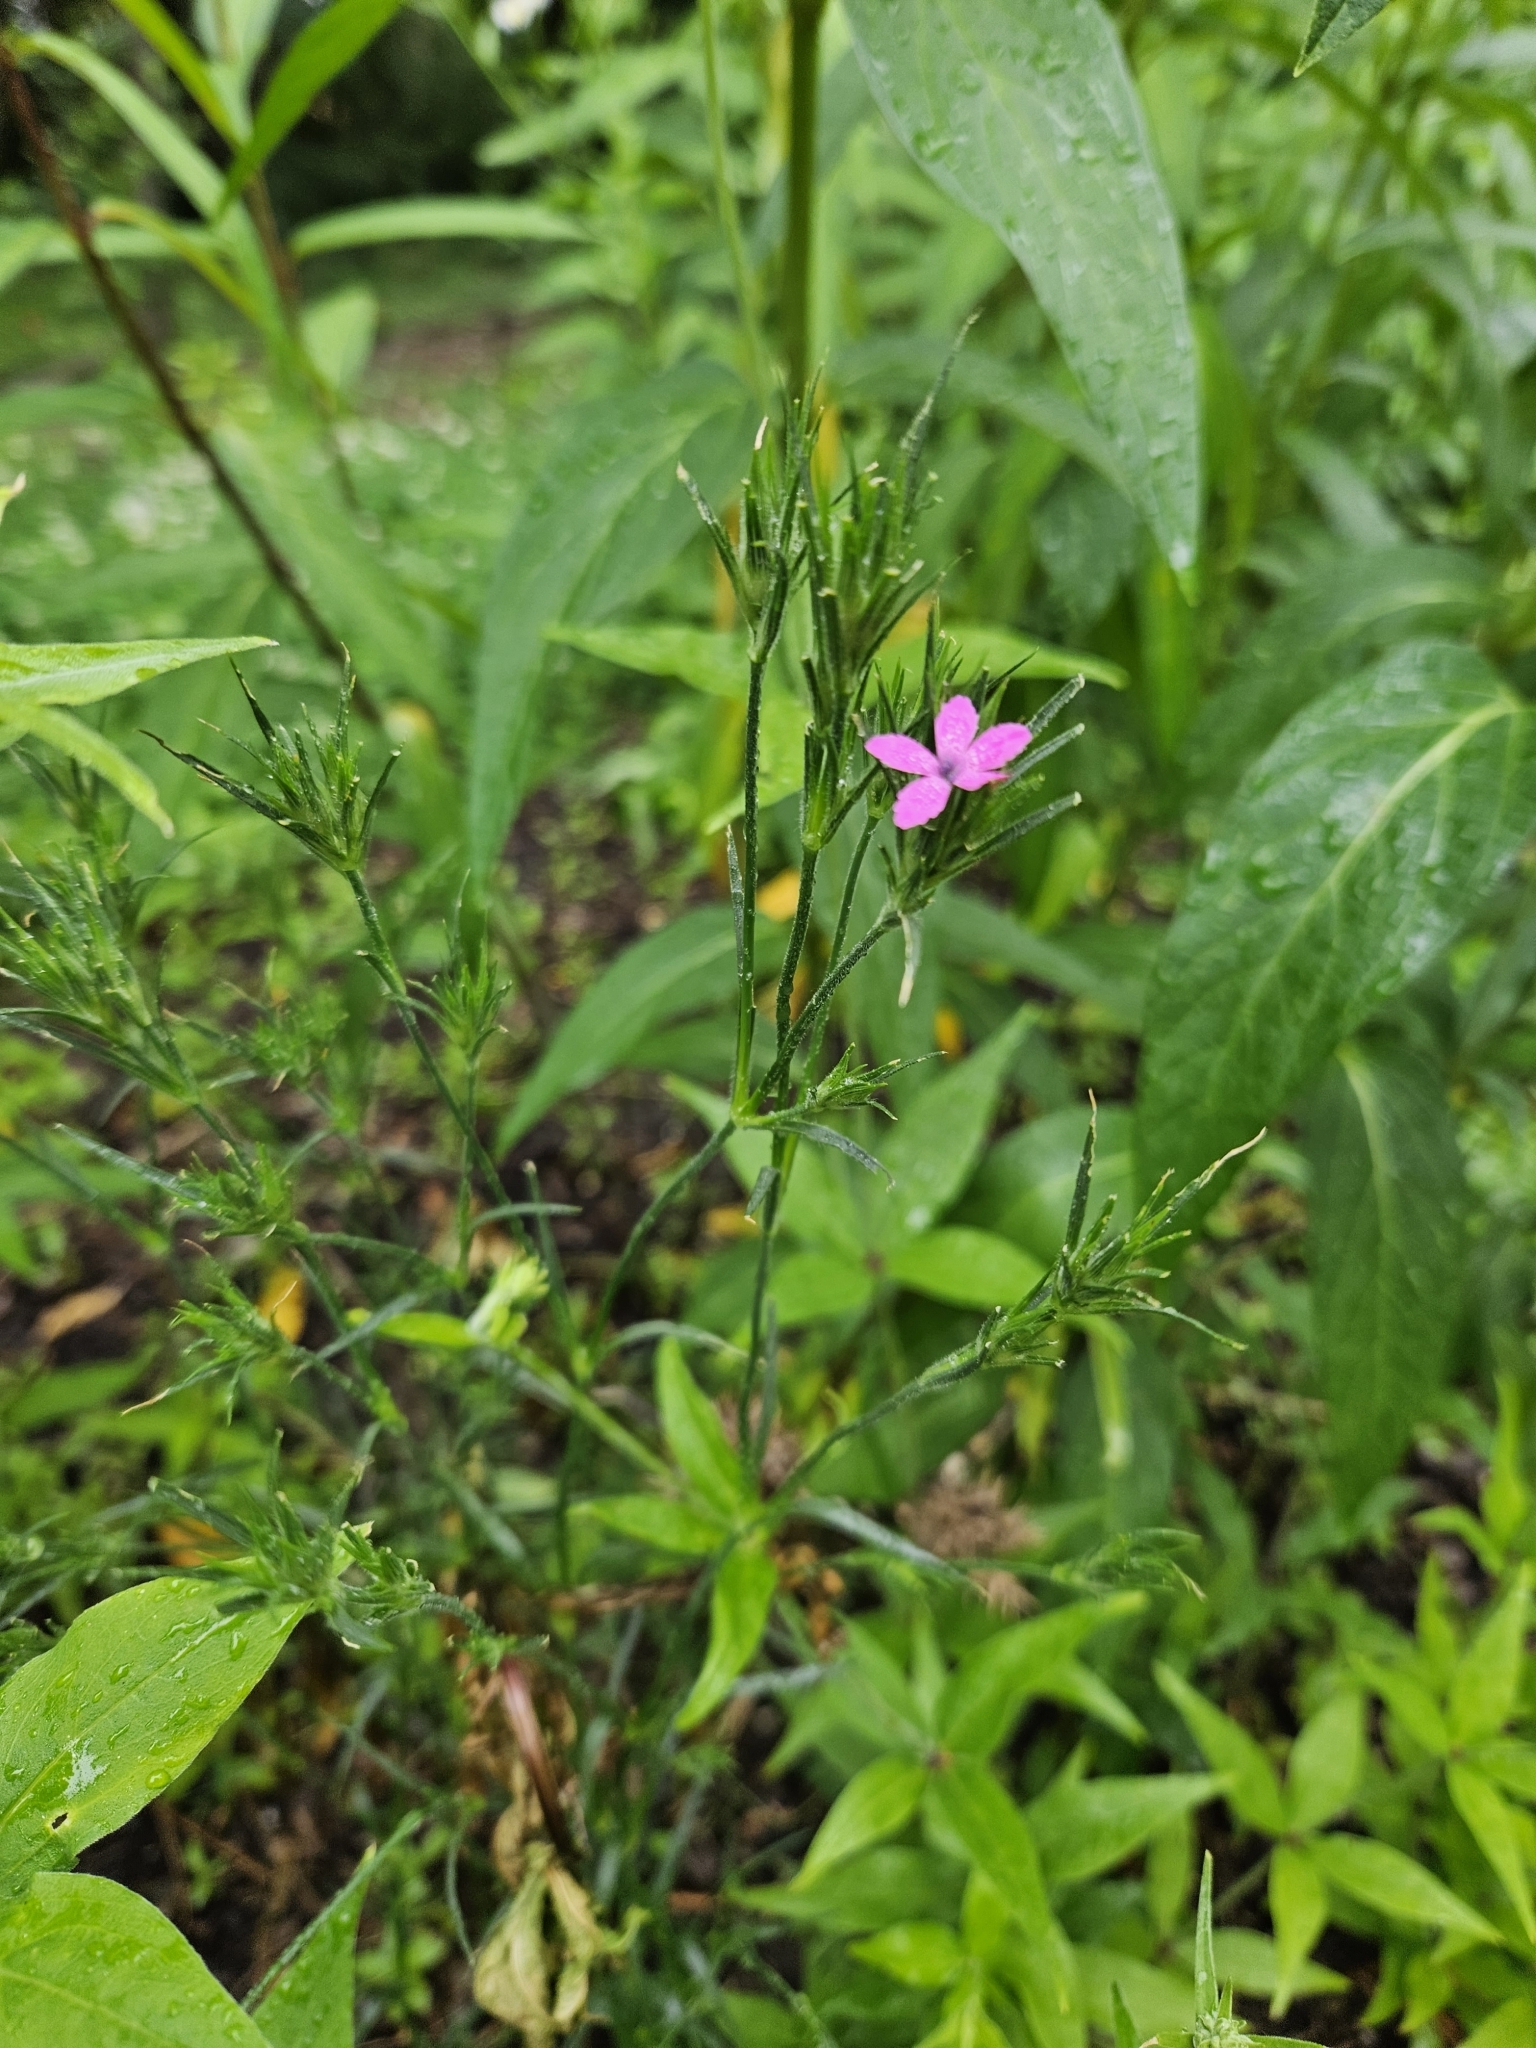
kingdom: Plantae
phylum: Tracheophyta
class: Magnoliopsida
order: Caryophyllales
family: Caryophyllaceae
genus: Dianthus
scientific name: Dianthus armeria
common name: Deptford pink
